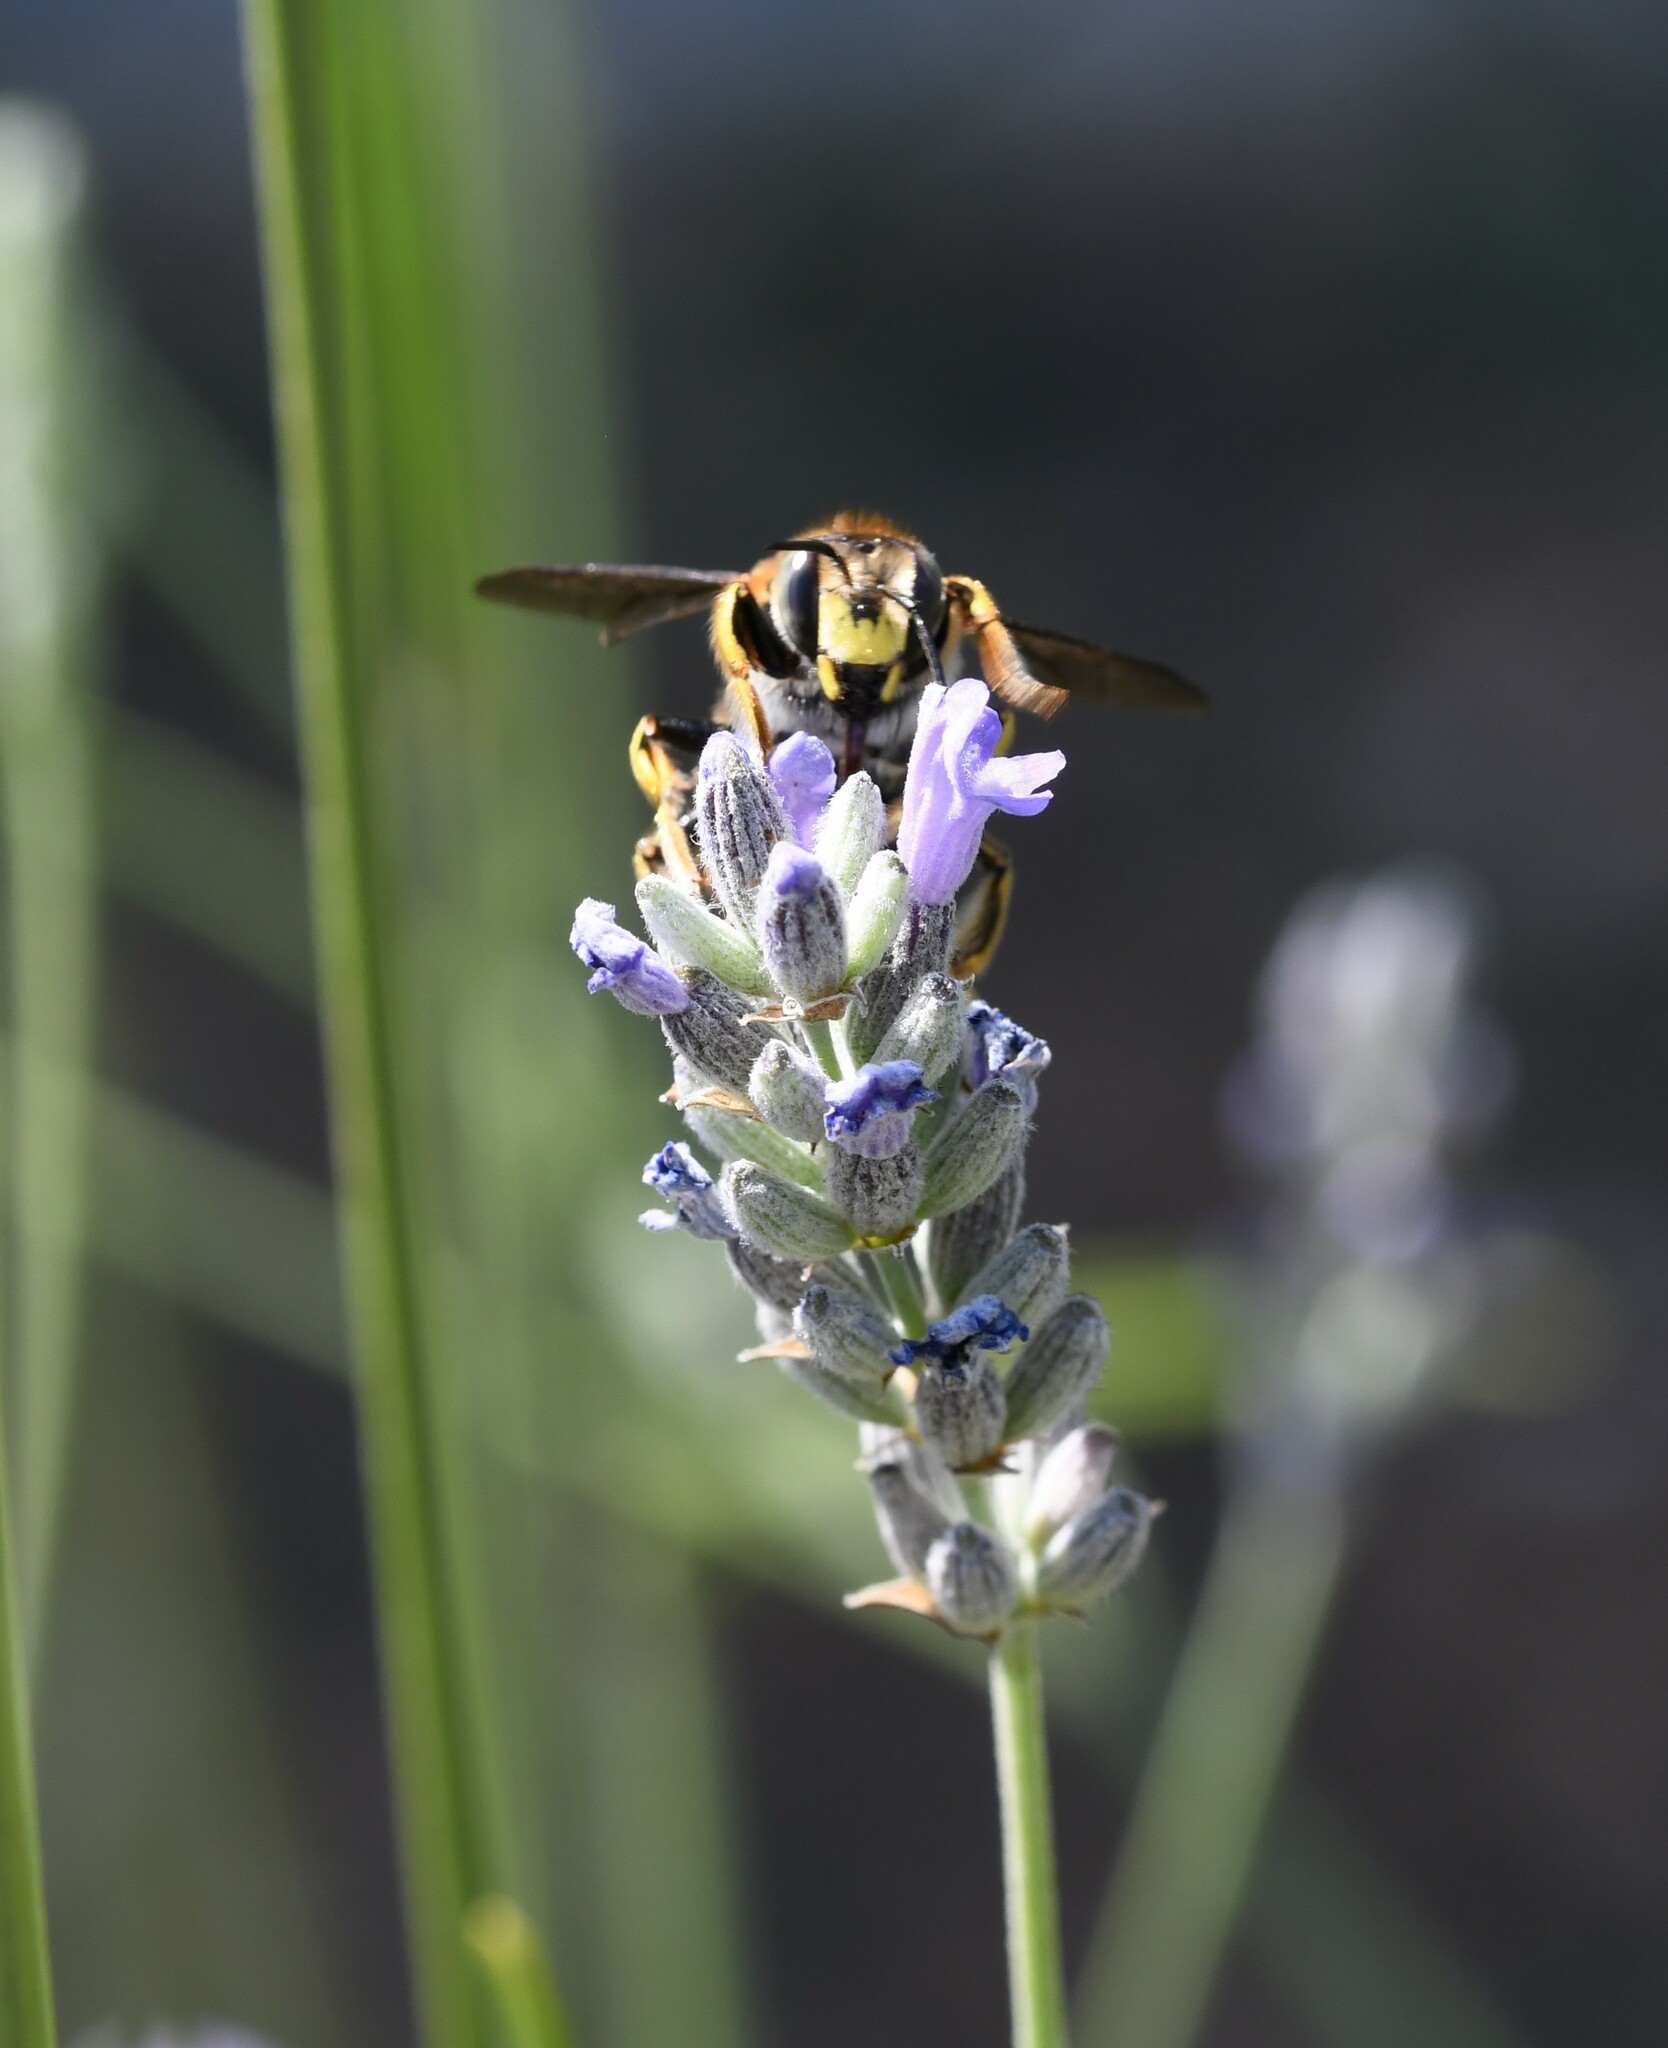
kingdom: Animalia
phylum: Arthropoda
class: Insecta
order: Hymenoptera
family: Megachilidae
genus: Anthidium
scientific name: Anthidium manicatum
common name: Wool carder bee
